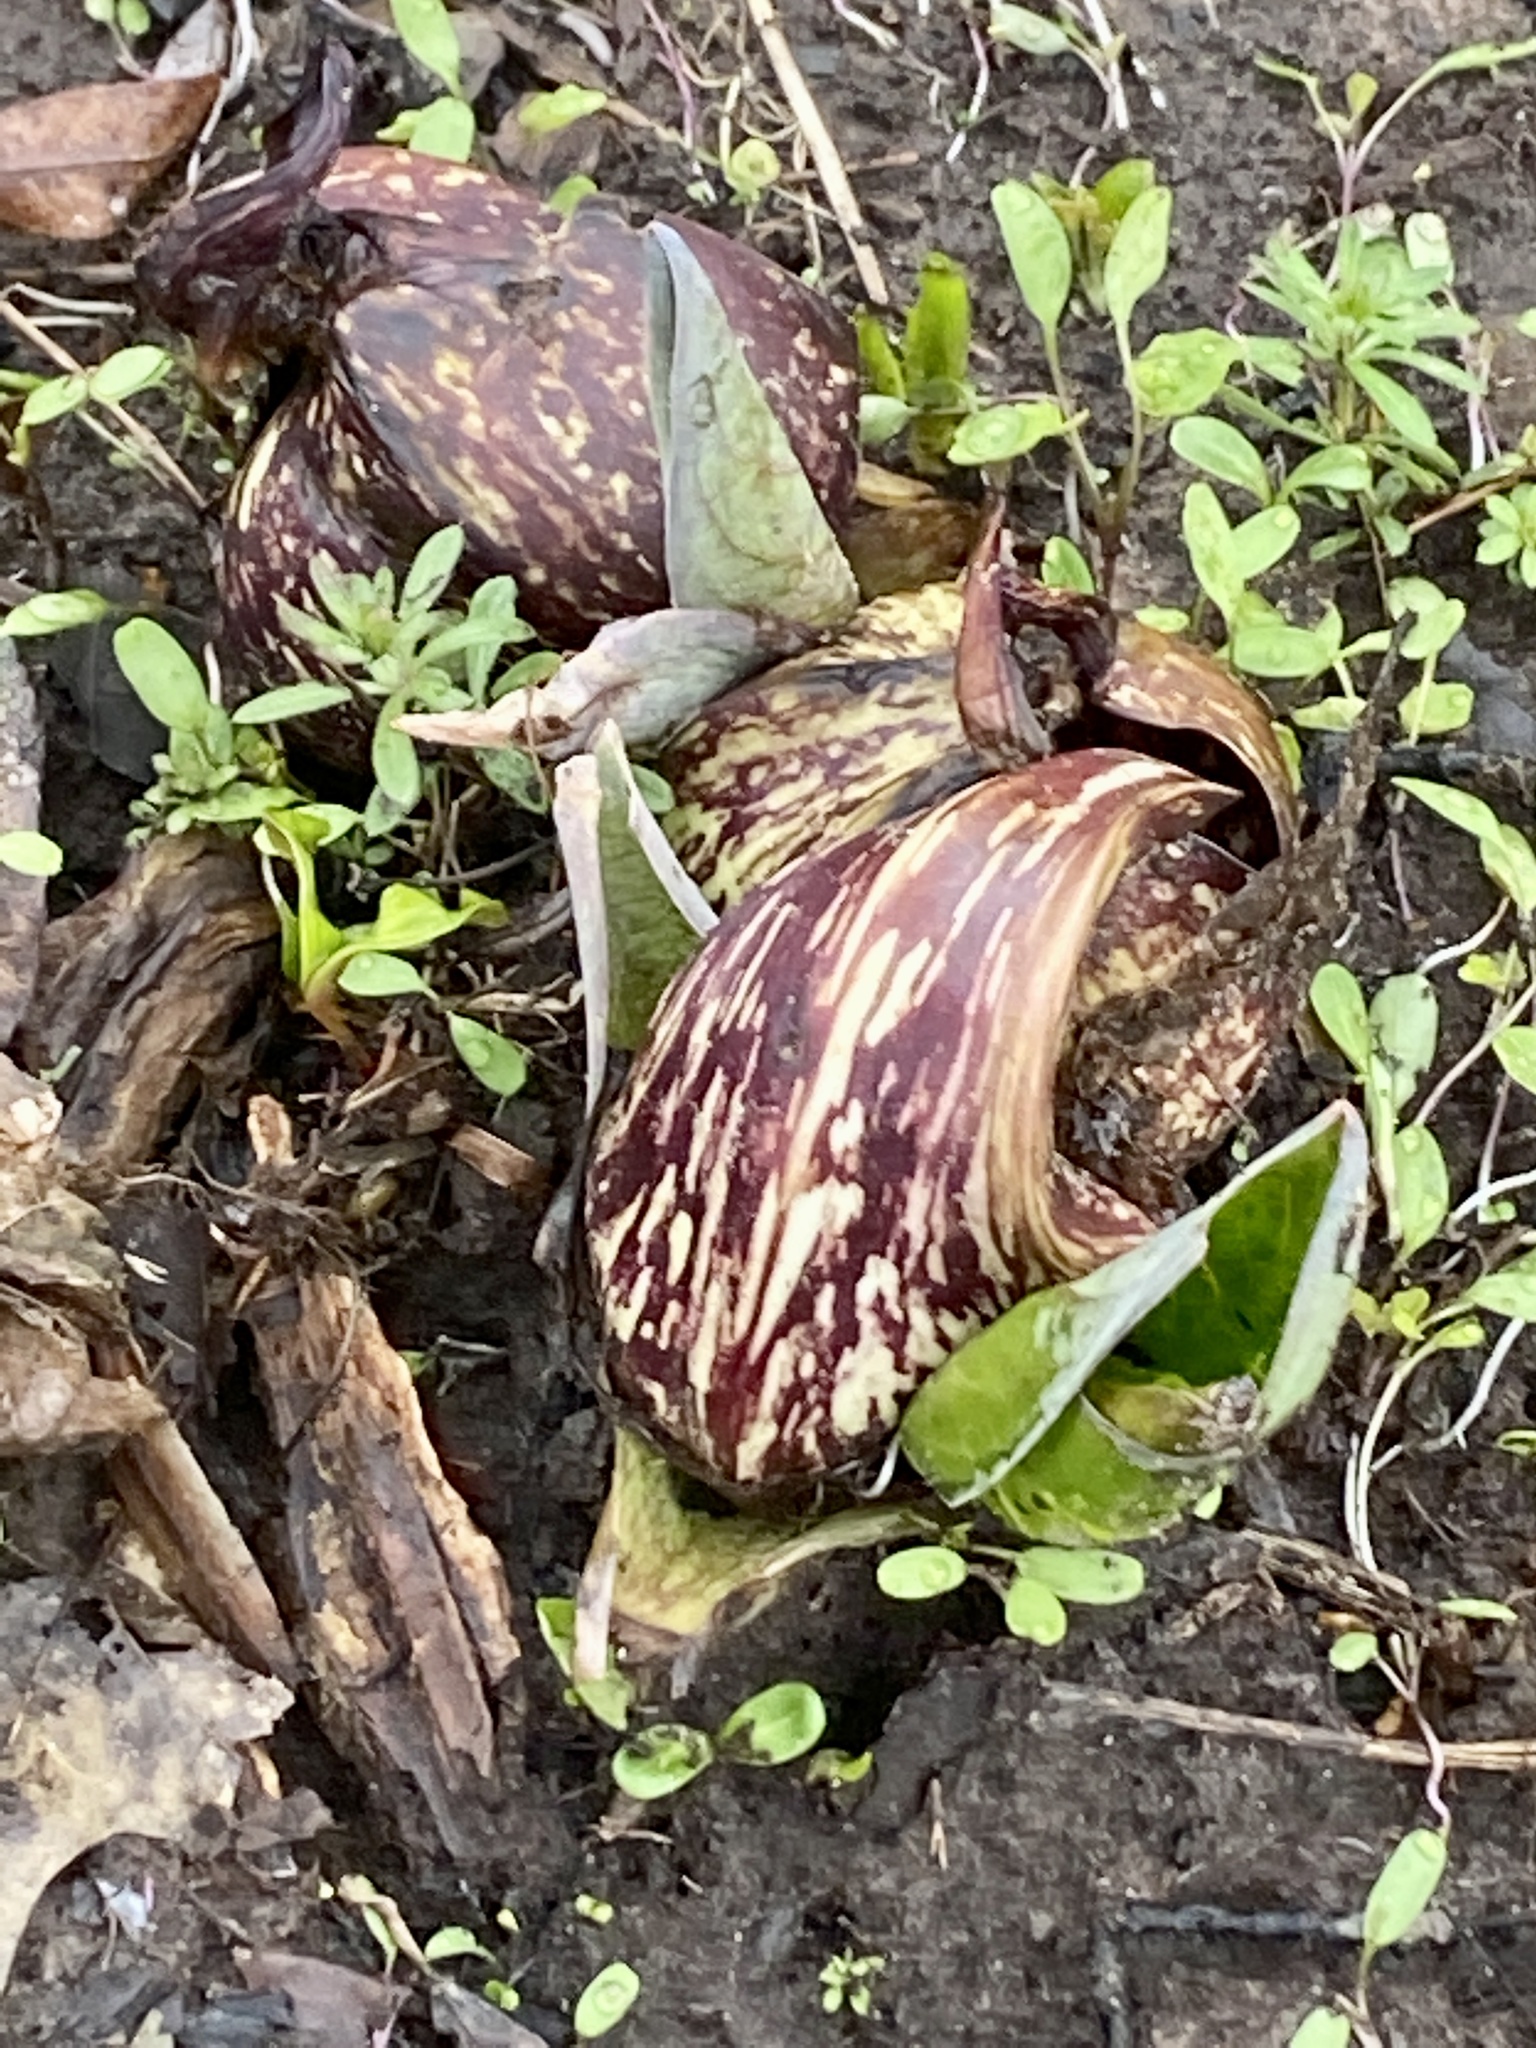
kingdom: Plantae
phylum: Tracheophyta
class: Liliopsida
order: Alismatales
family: Araceae
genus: Symplocarpus
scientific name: Symplocarpus foetidus
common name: Eastern skunk cabbage
